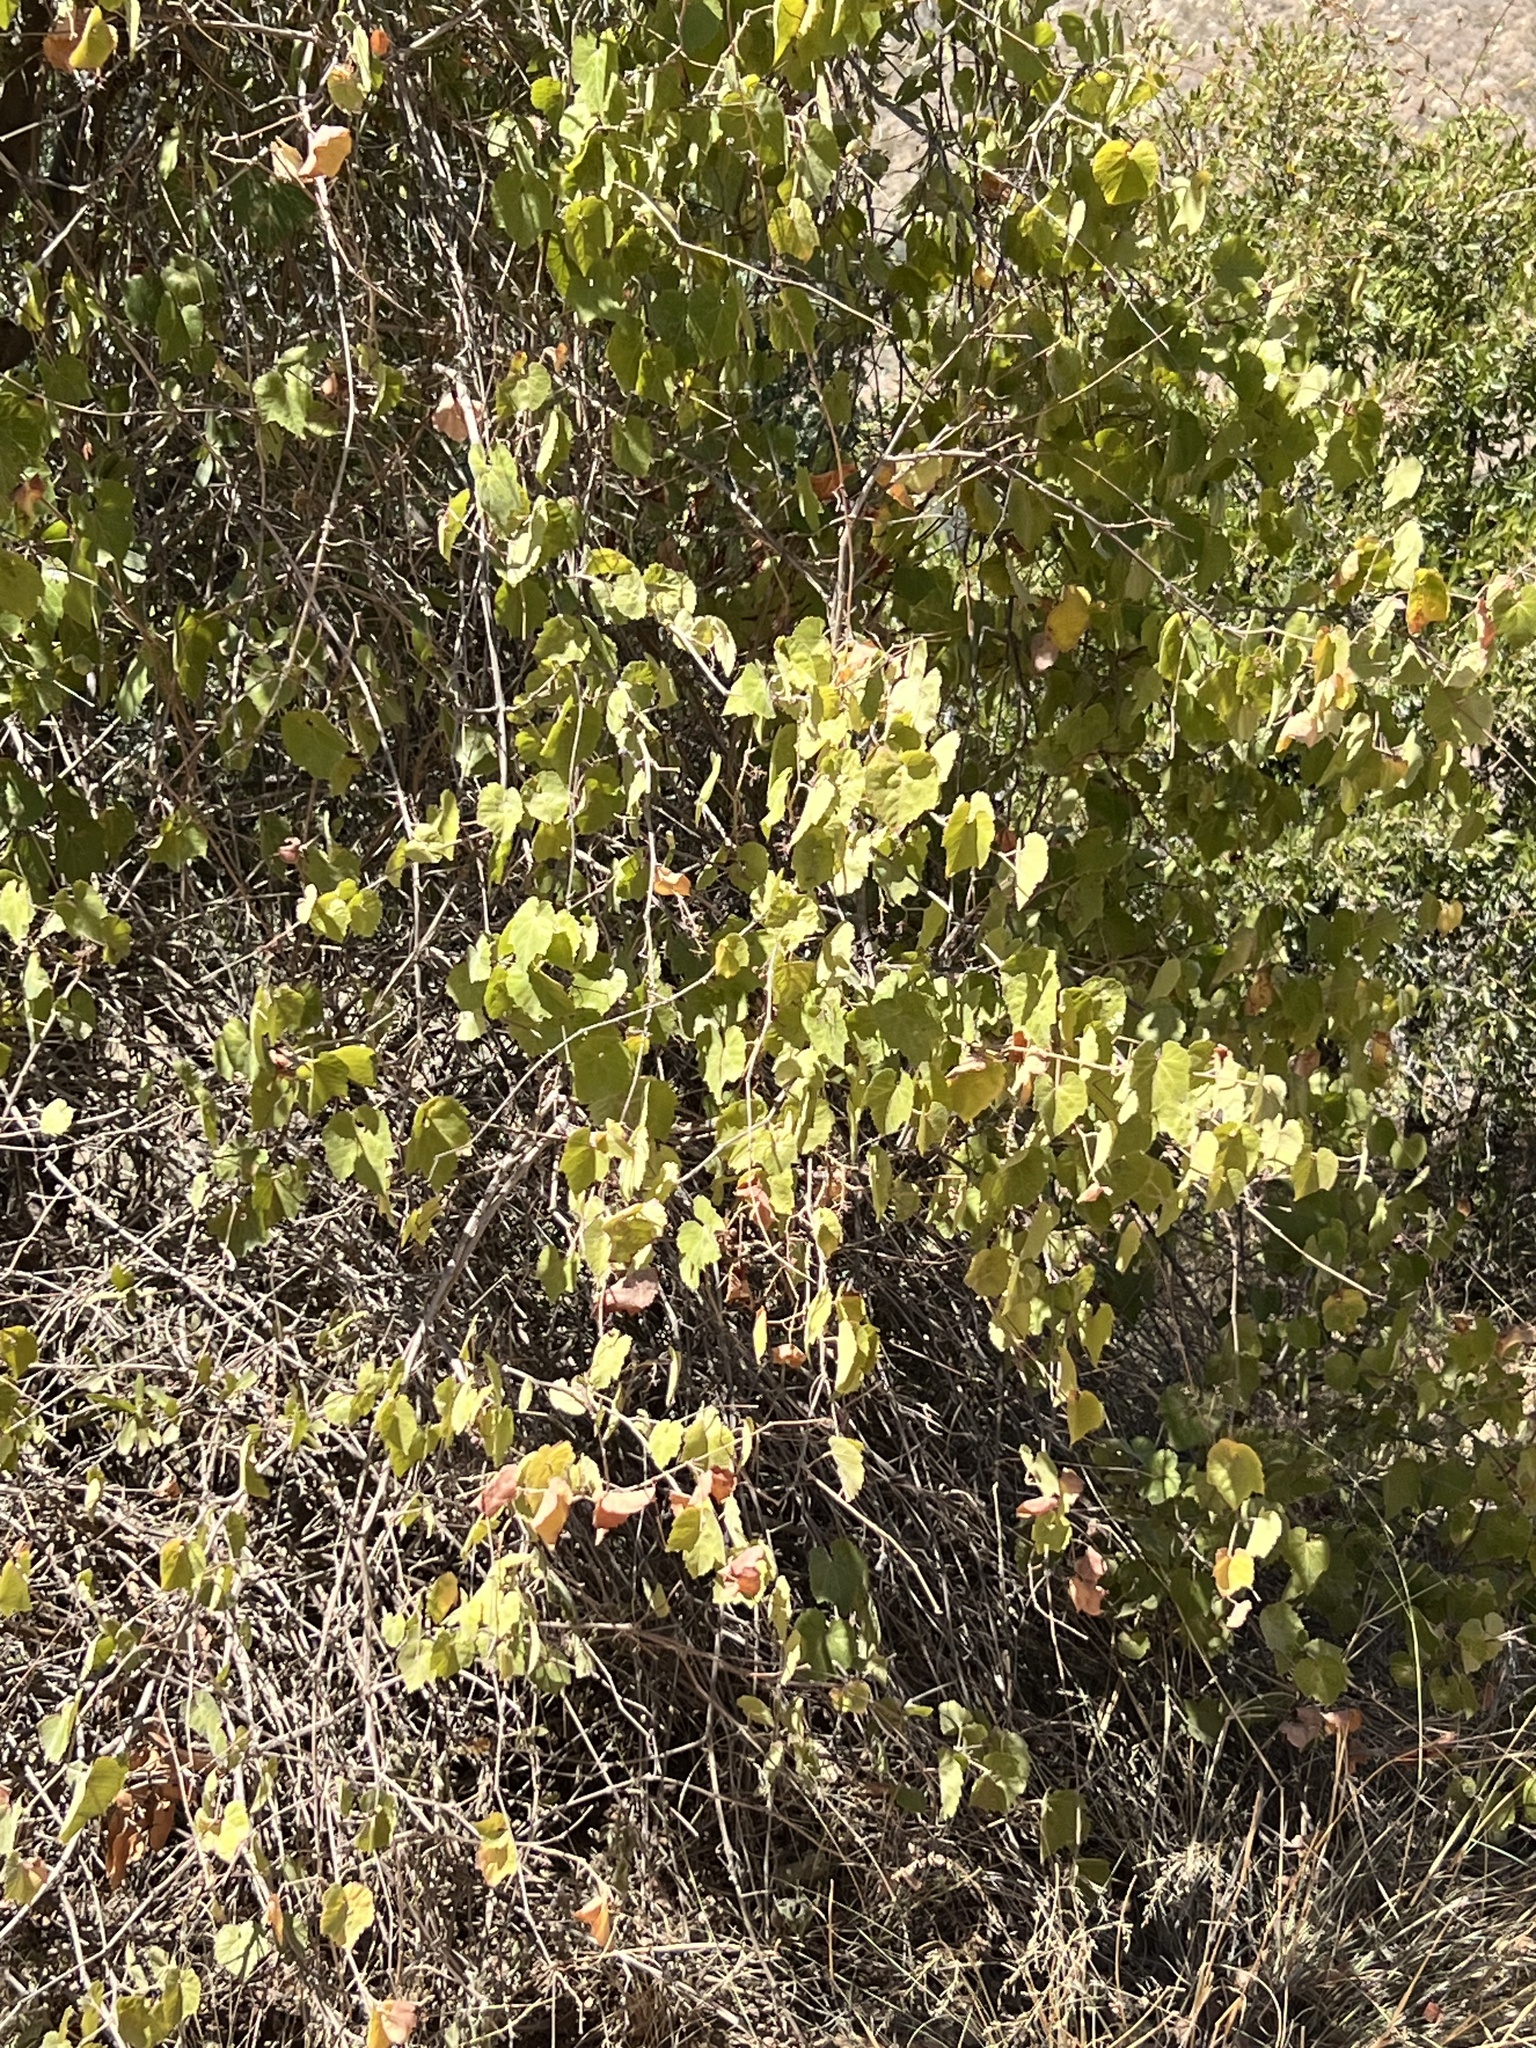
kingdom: Plantae
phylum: Tracheophyta
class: Magnoliopsida
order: Vitales
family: Vitaceae
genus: Vitis
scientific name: Vitis arizonica
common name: Canyon grape
